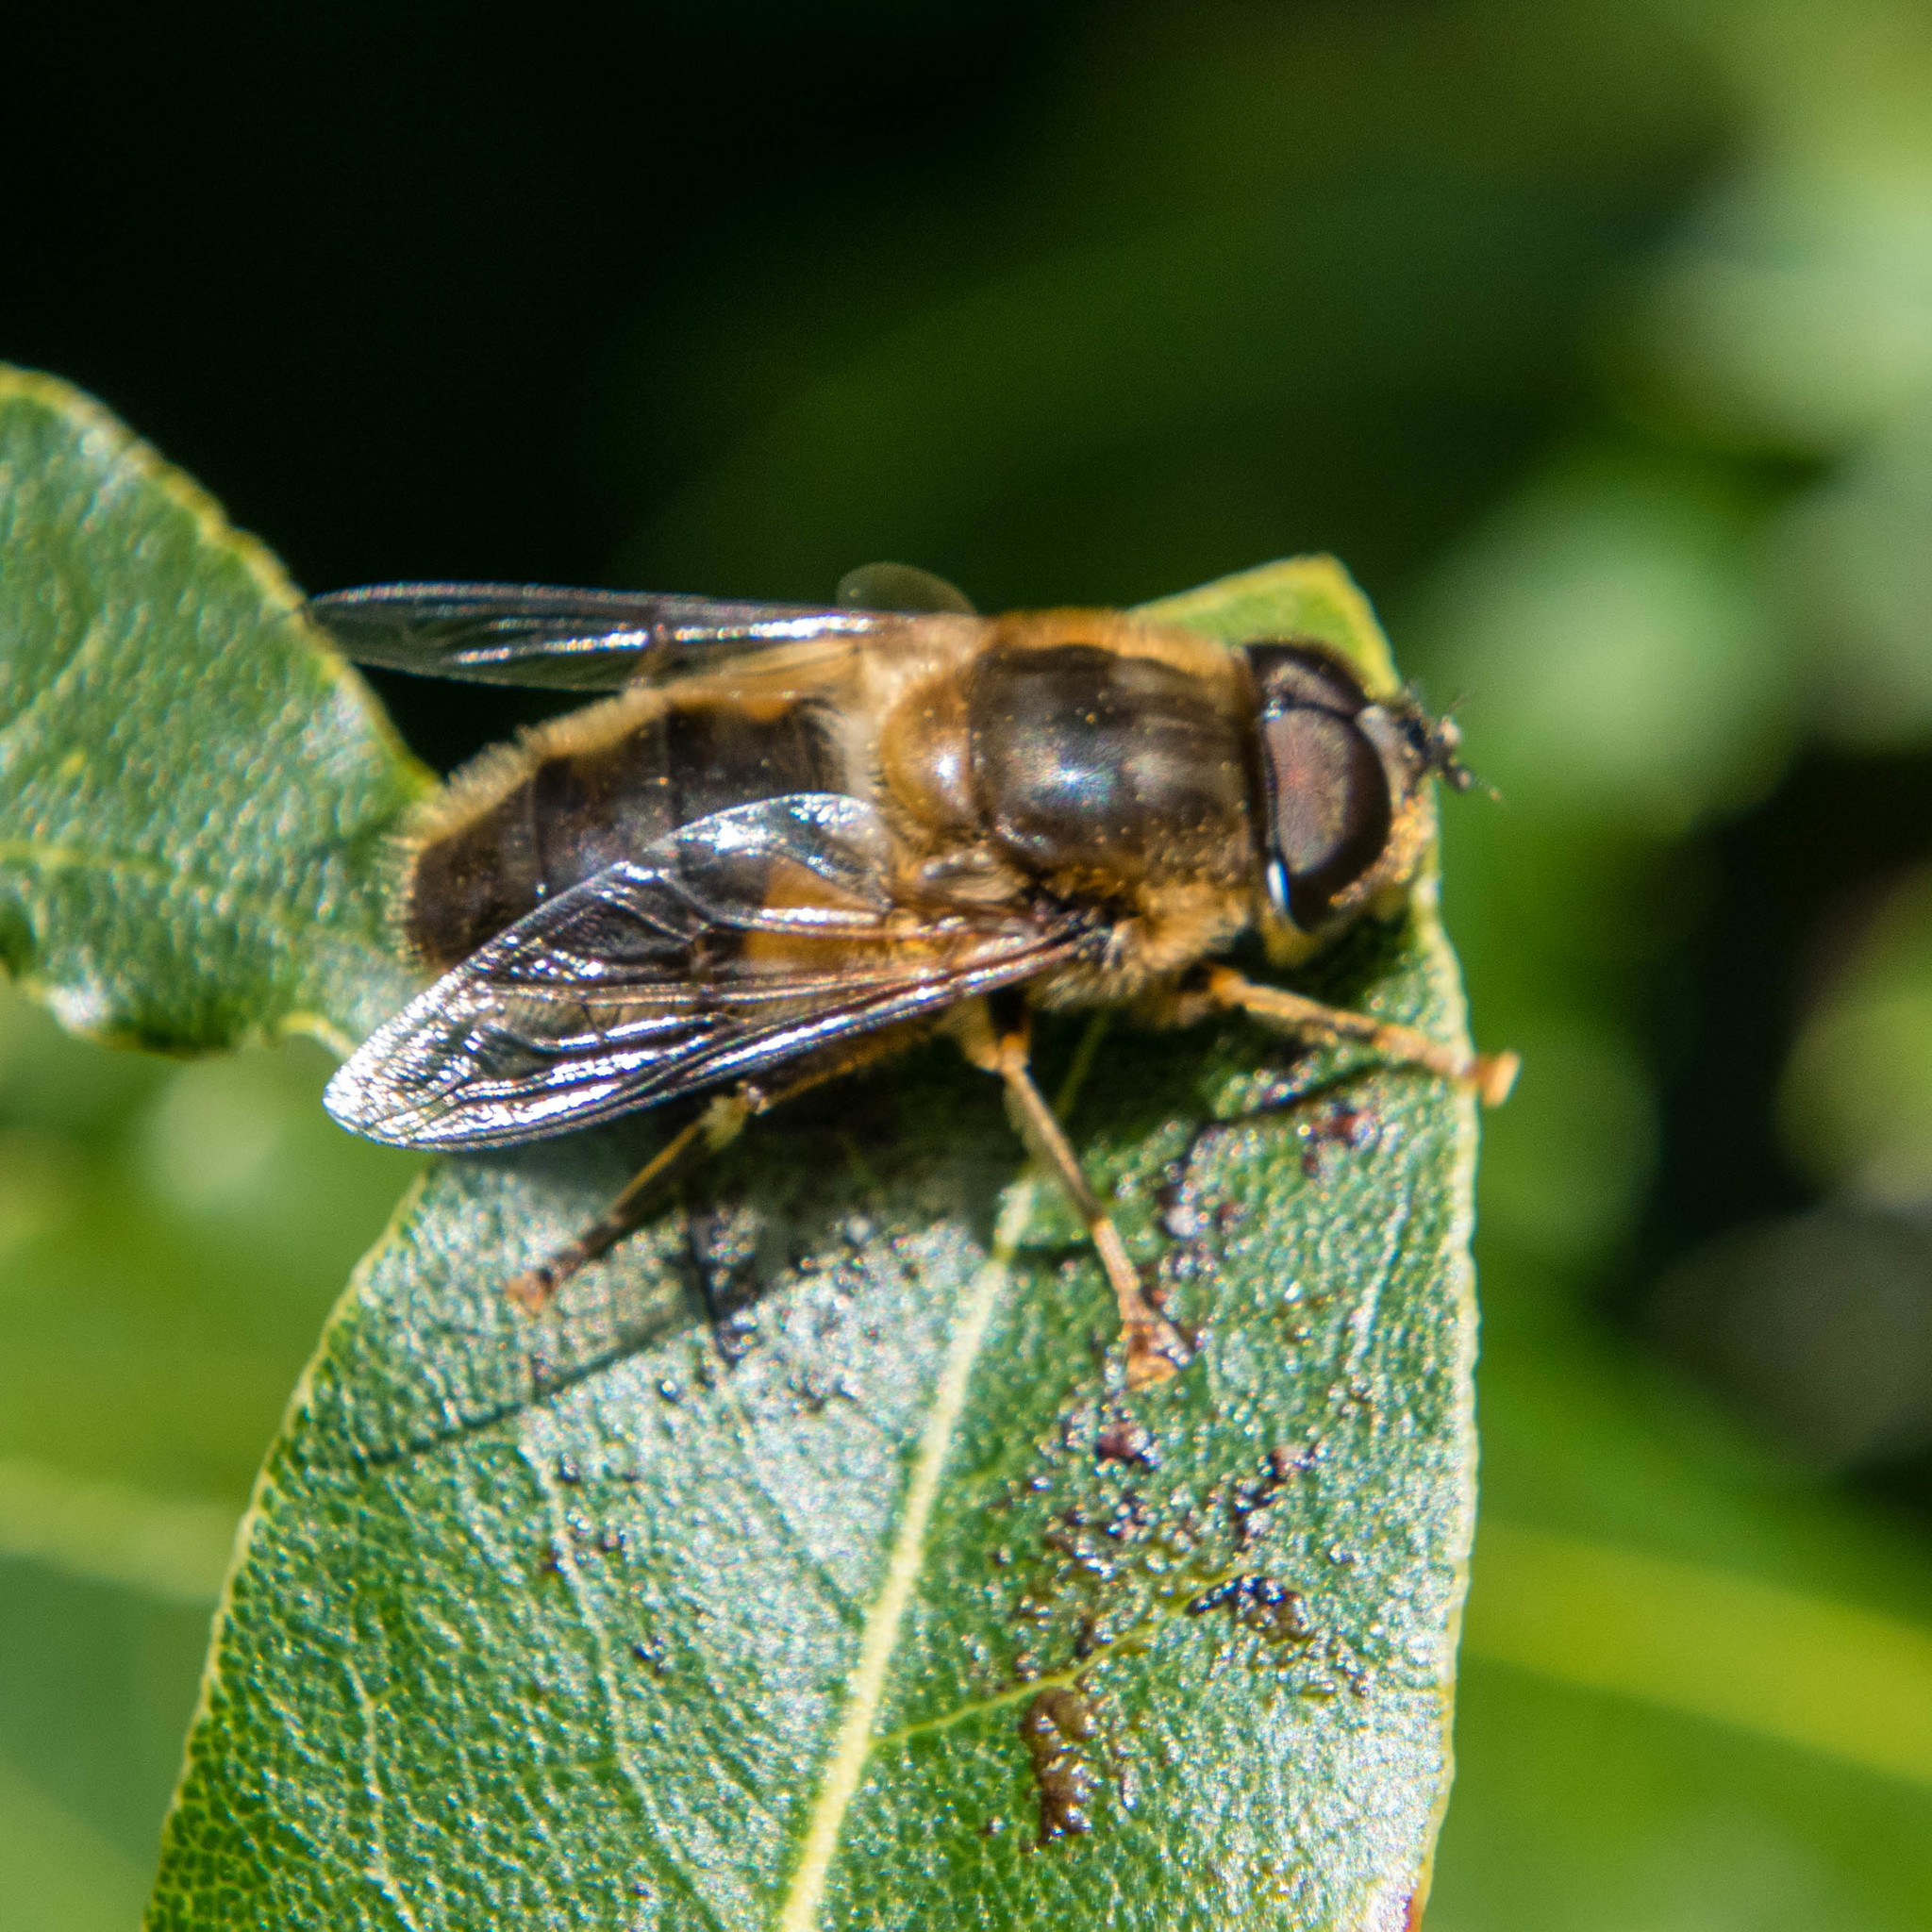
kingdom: Animalia
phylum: Arthropoda
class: Insecta
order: Diptera
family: Syrphidae
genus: Eristalis
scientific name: Eristalis pertinax
